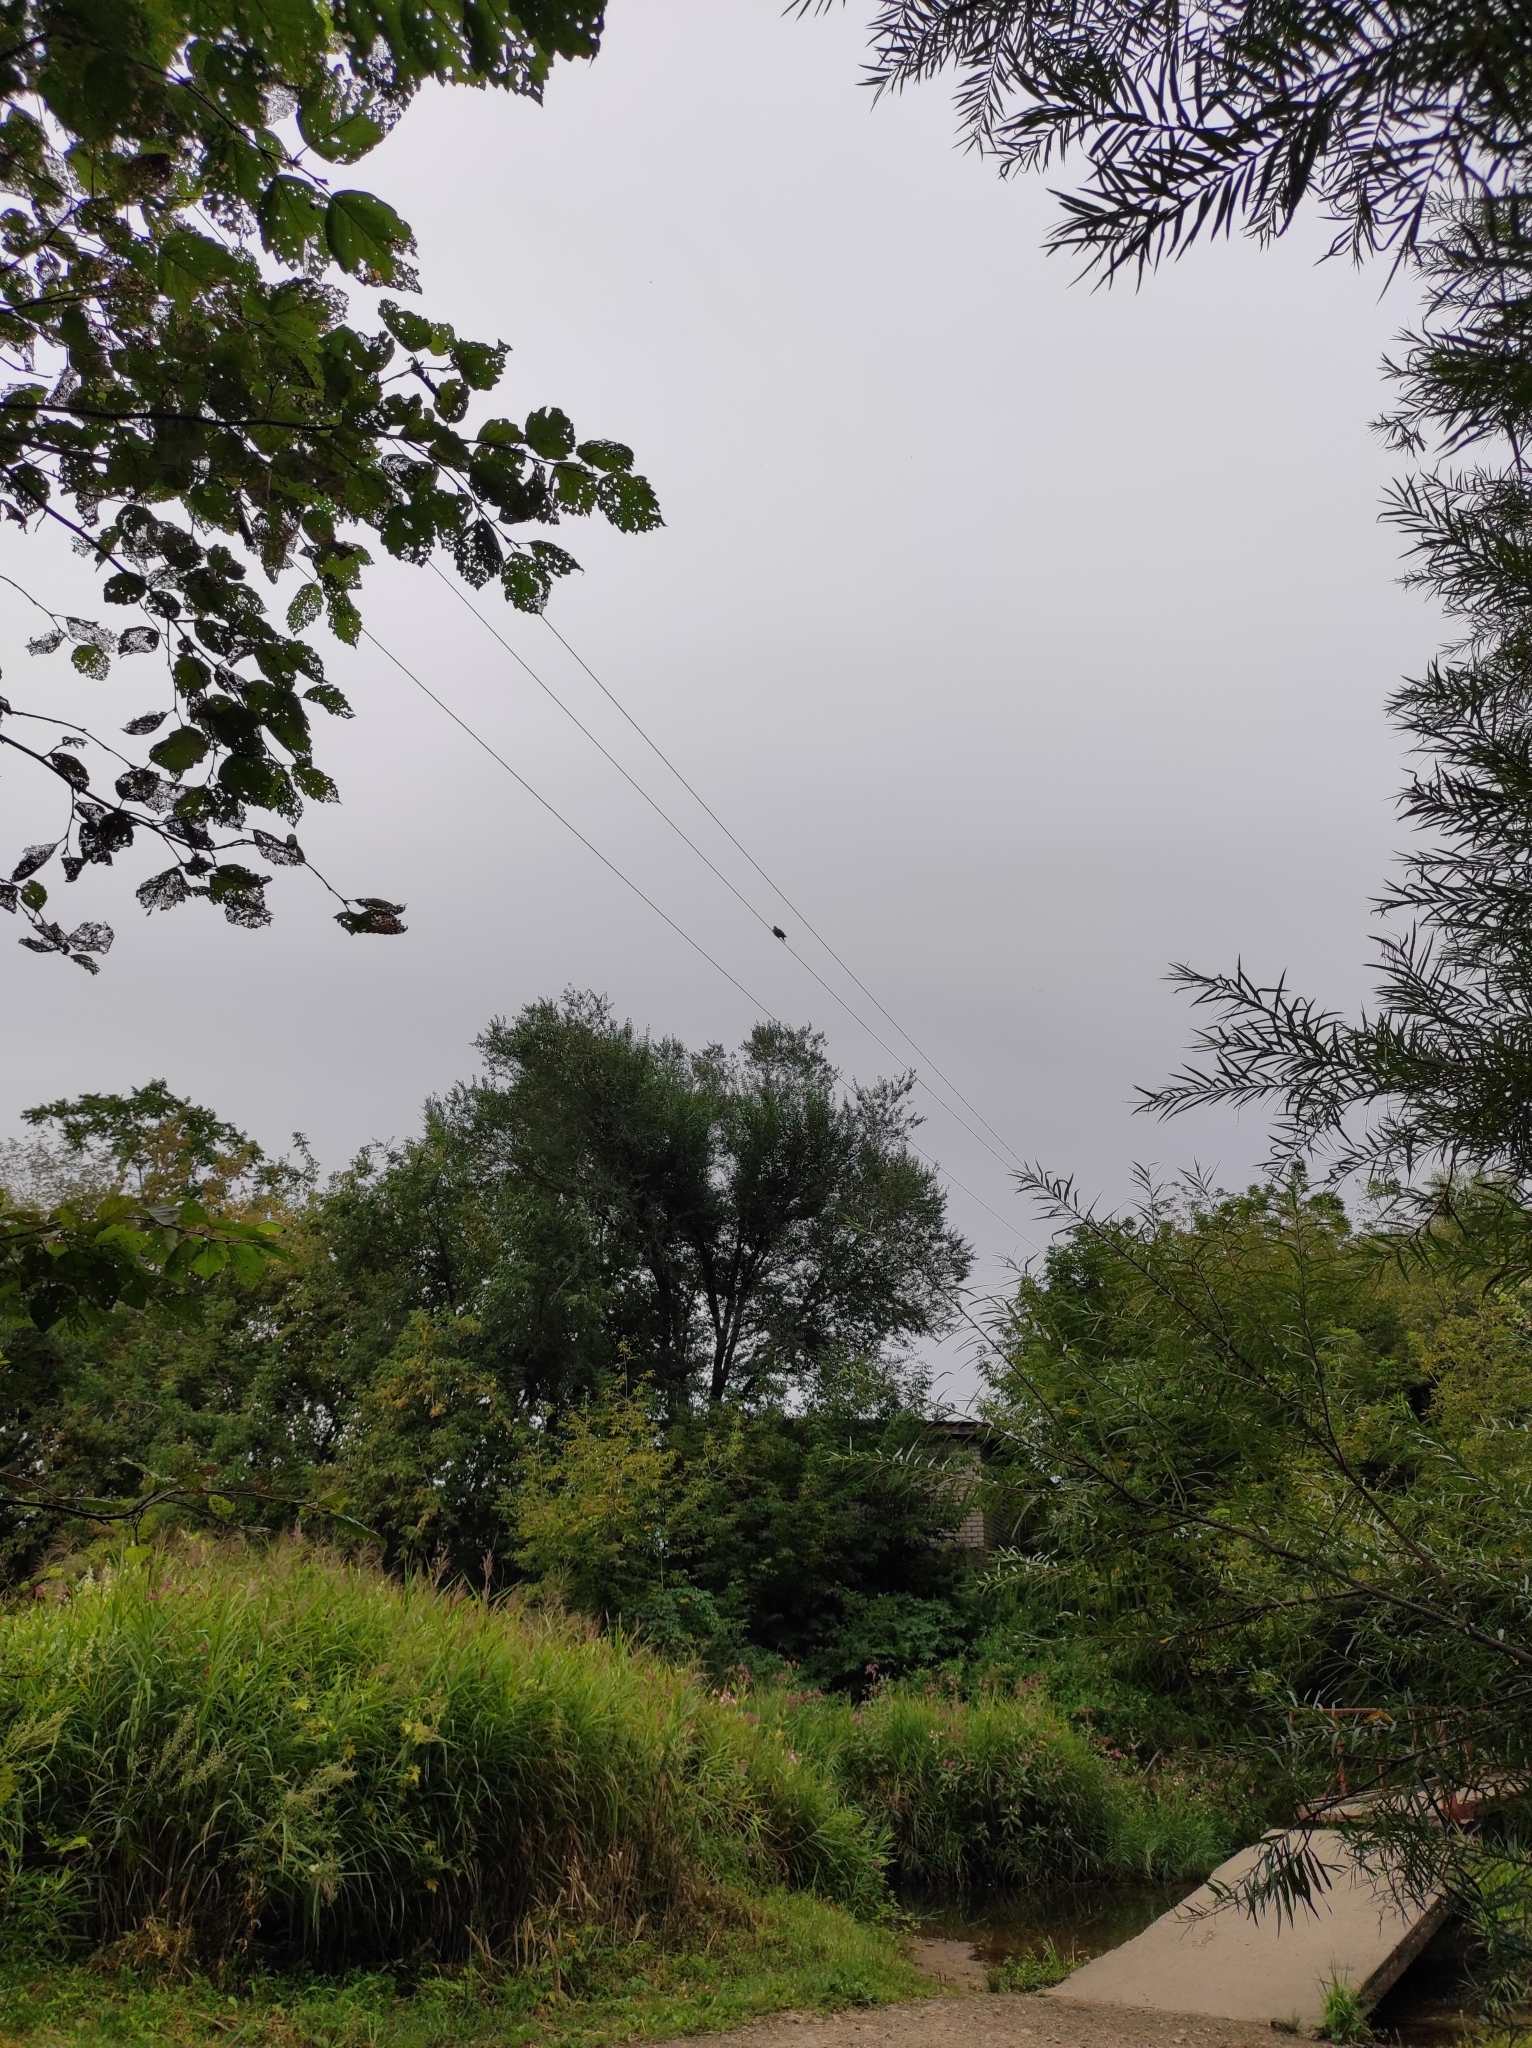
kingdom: Animalia
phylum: Chordata
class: Aves
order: Columbiformes
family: Columbidae
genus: Streptopelia
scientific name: Streptopelia orientalis
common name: Oriental turtle dove
